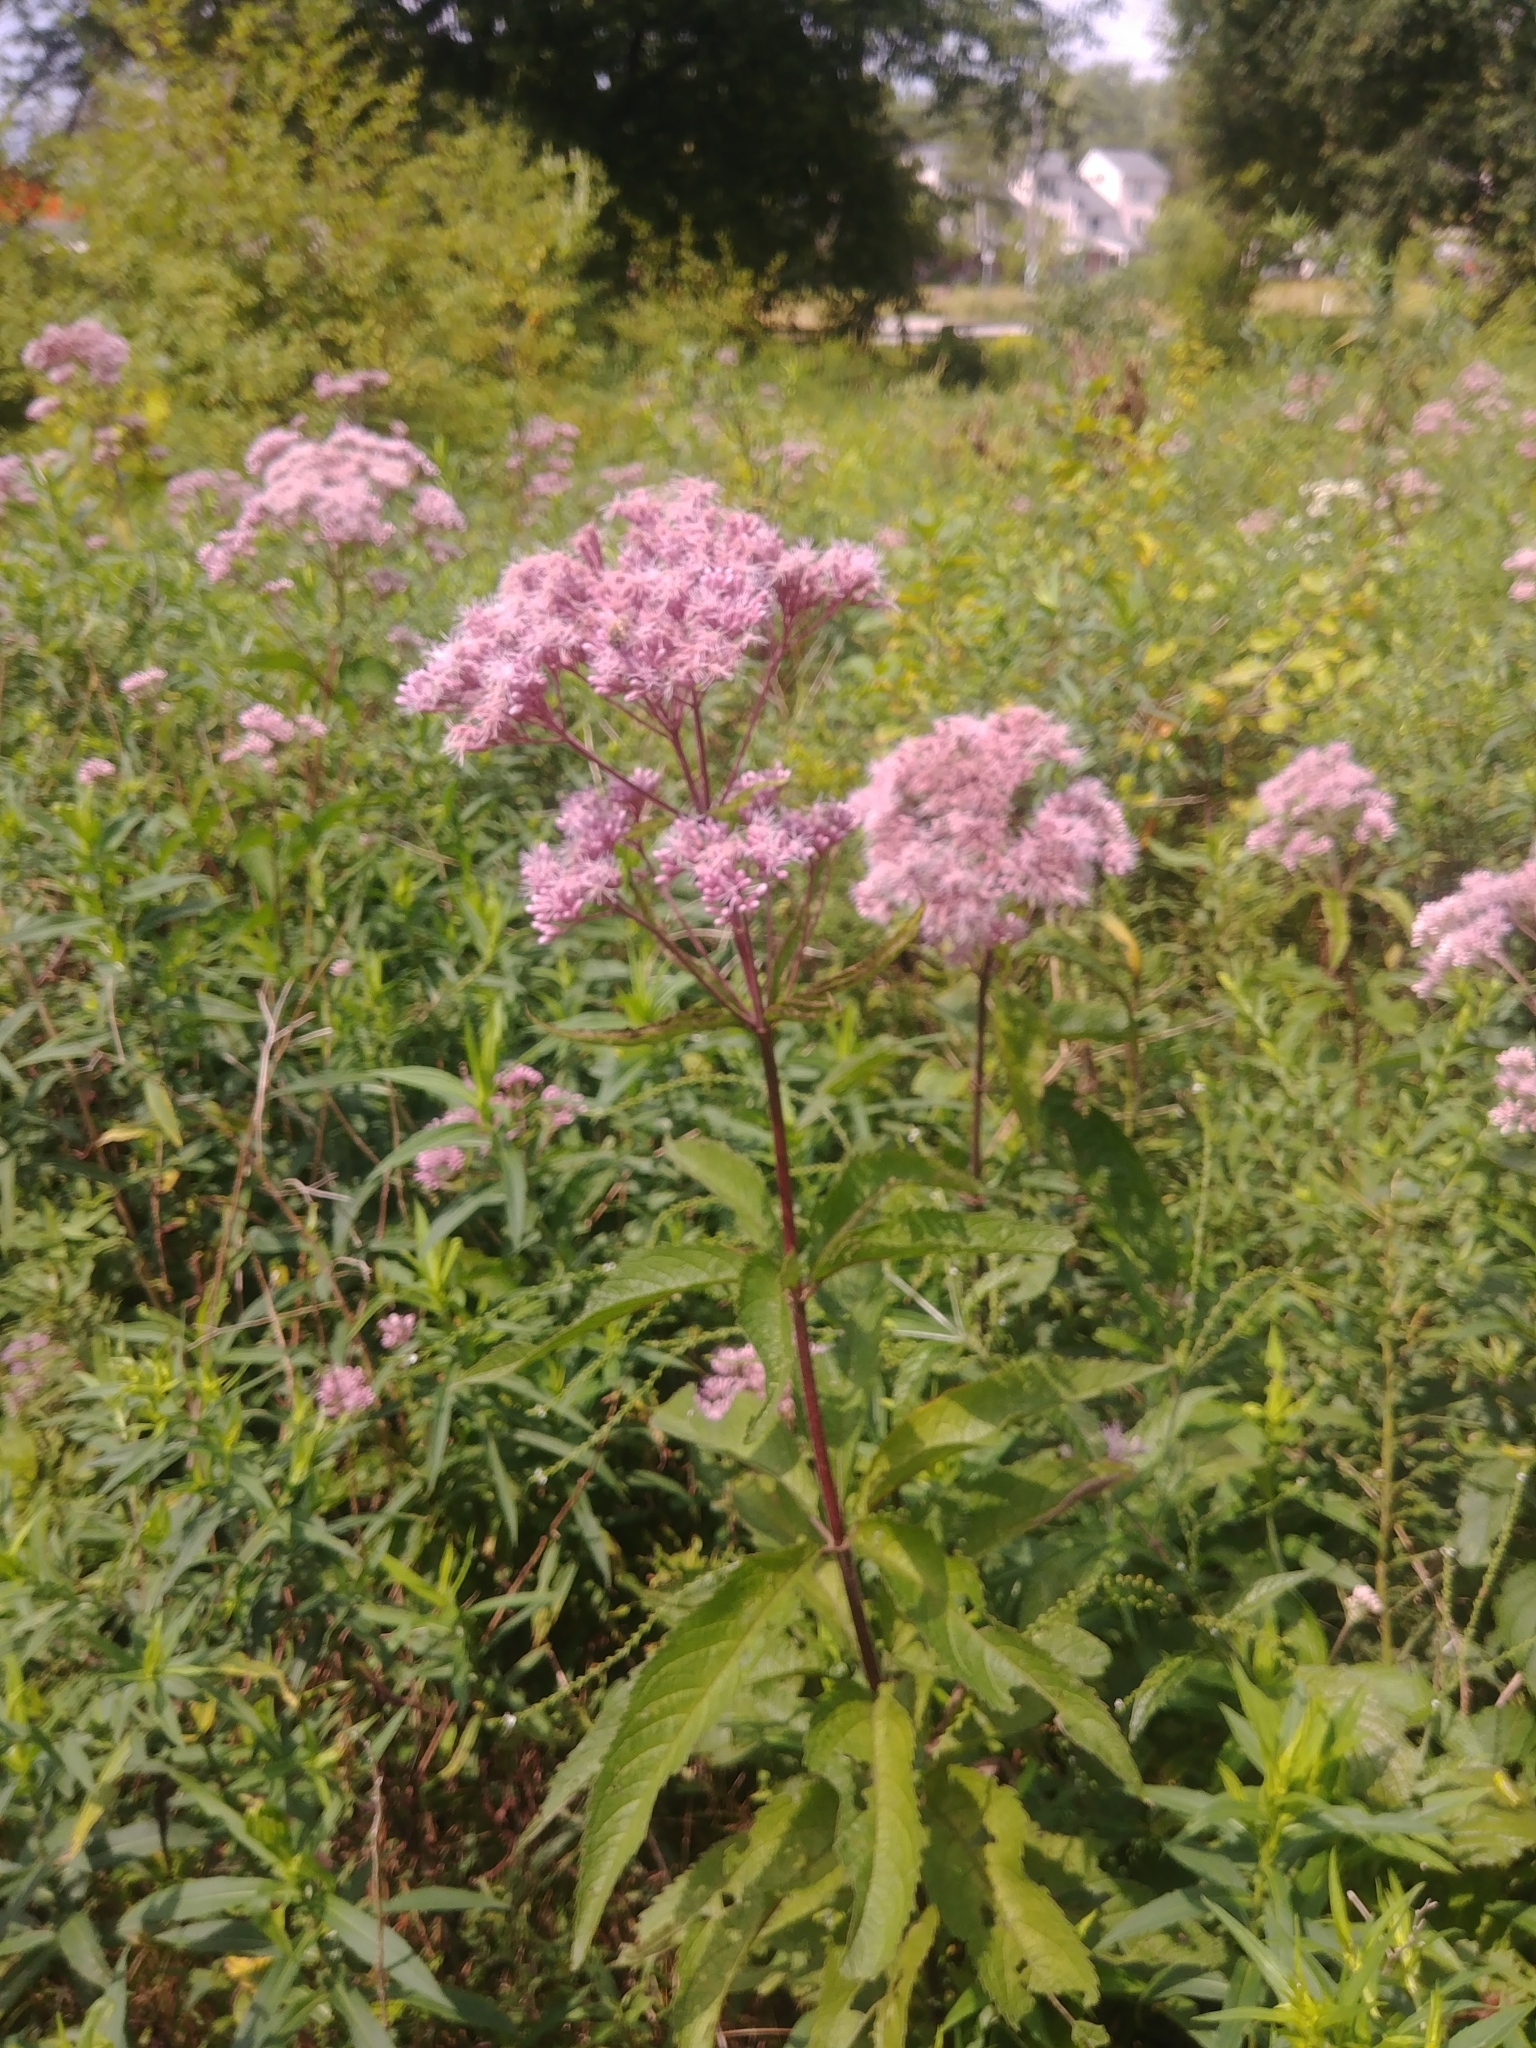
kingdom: Plantae
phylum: Tracheophyta
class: Magnoliopsida
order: Asterales
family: Asteraceae
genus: Eutrochium
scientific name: Eutrochium maculatum
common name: Spotted joe pye weed
